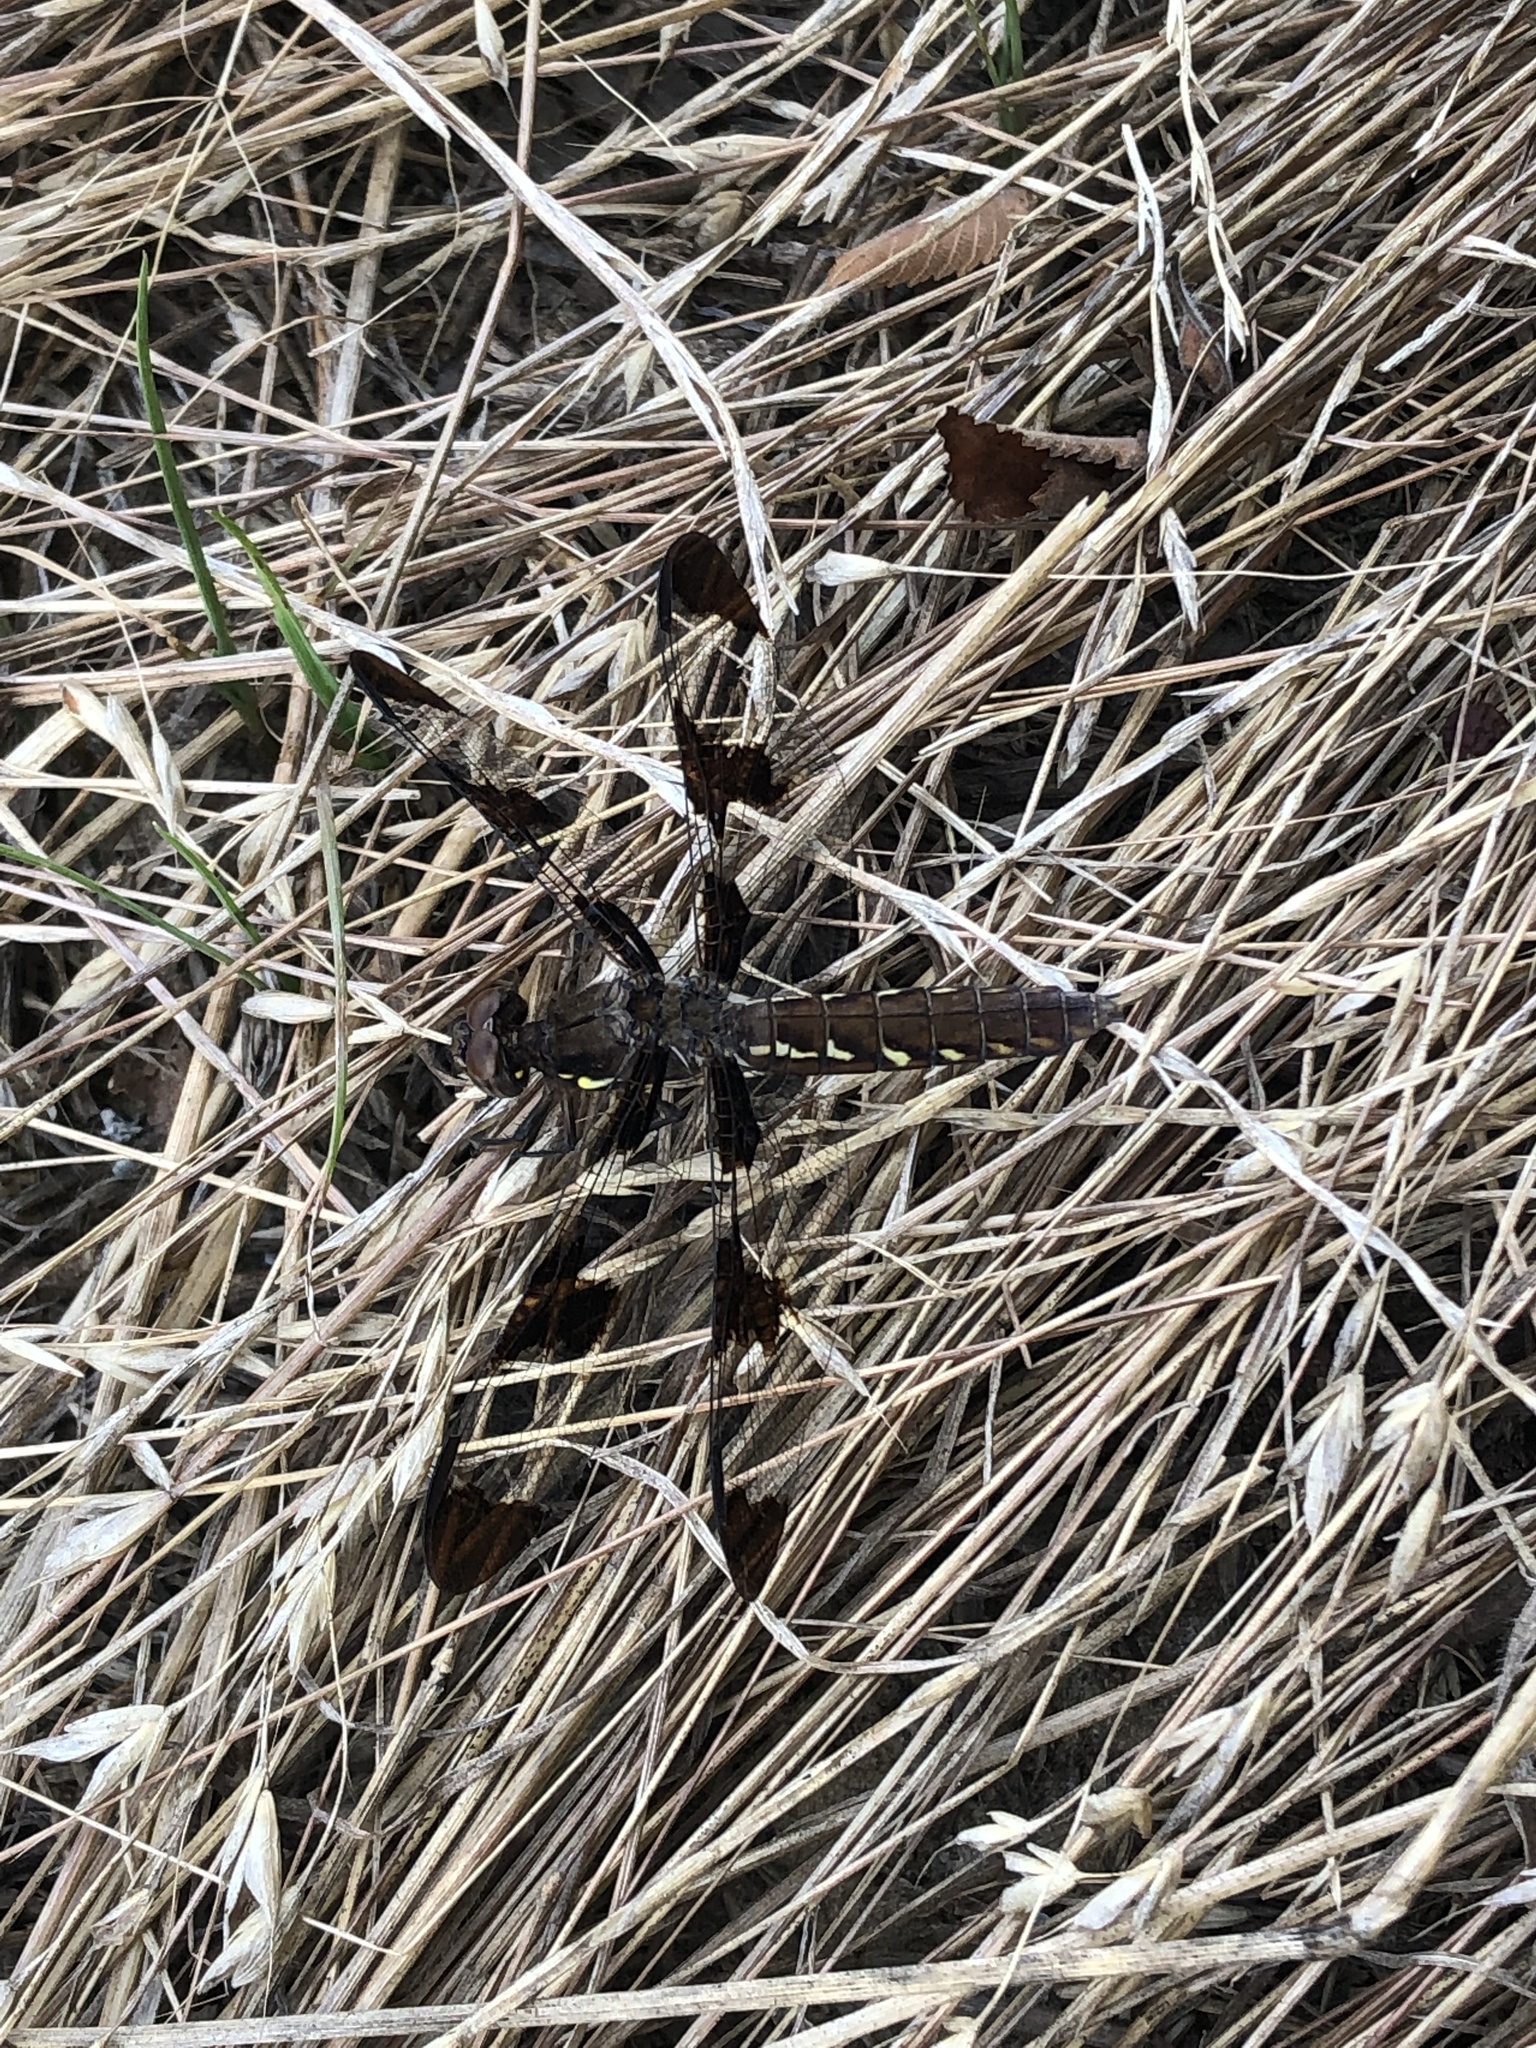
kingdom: Animalia
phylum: Arthropoda
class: Insecta
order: Odonata
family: Libellulidae
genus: Plathemis
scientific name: Plathemis lydia
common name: Common whitetail
